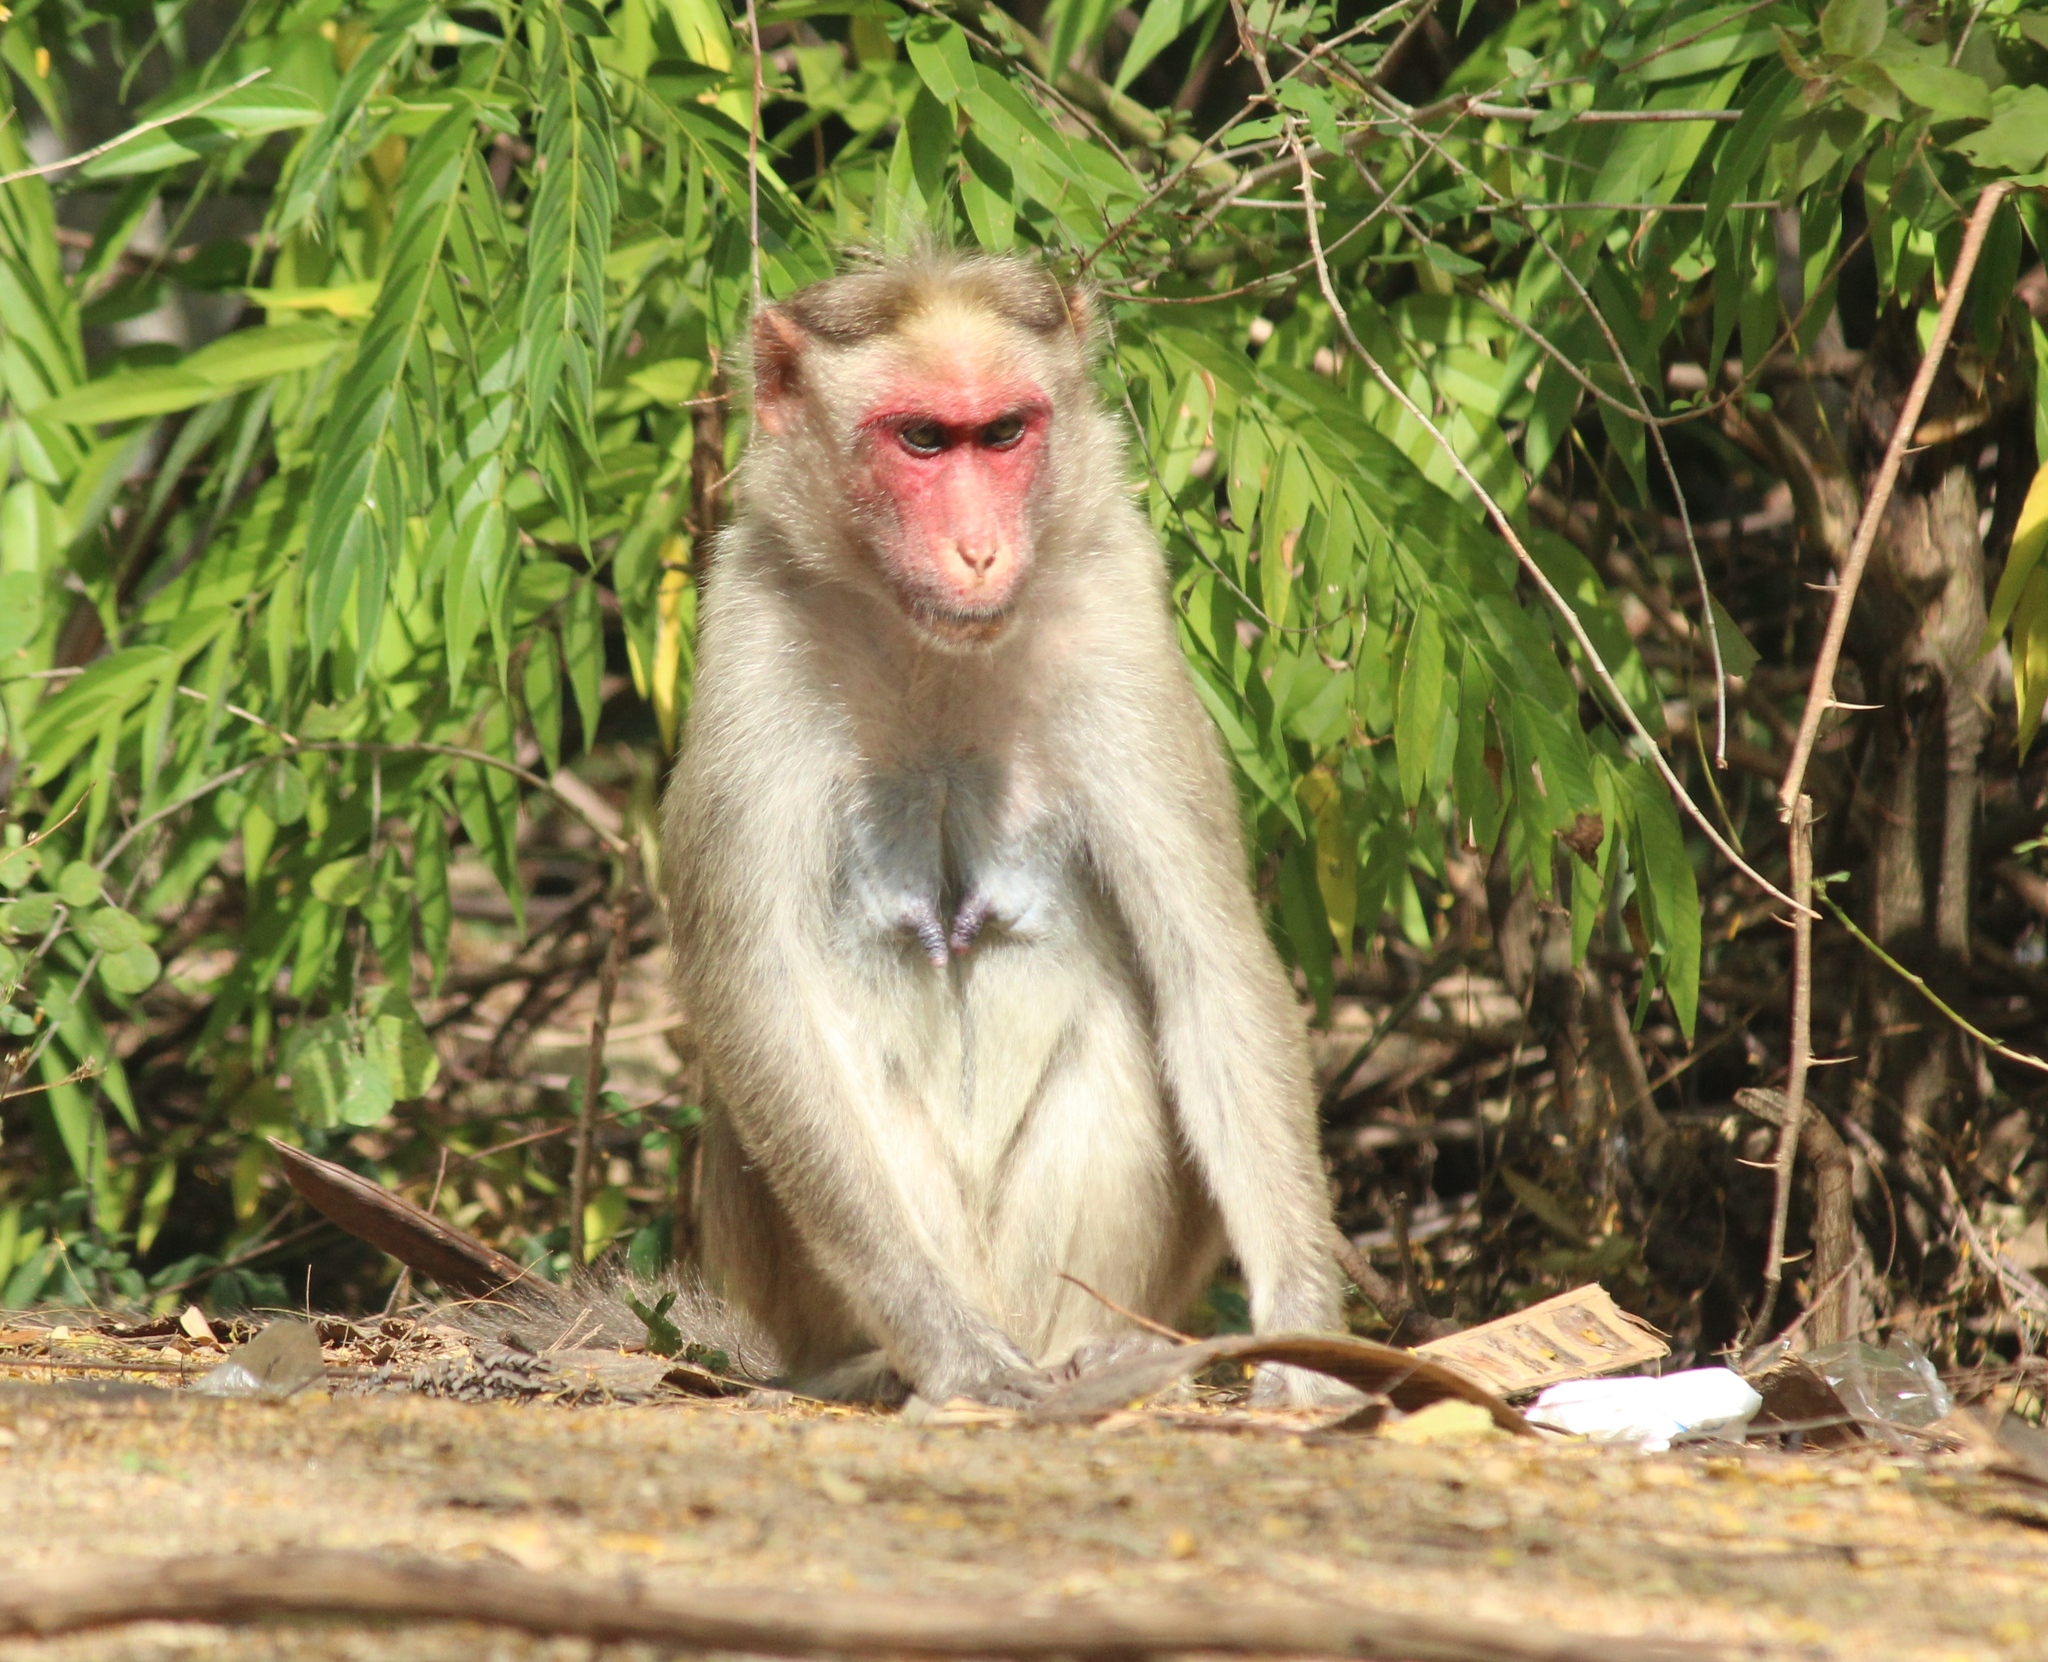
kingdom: Animalia
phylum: Chordata
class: Mammalia
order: Primates
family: Cercopithecidae
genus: Macaca
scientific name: Macaca radiata
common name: Bonnet macaque
